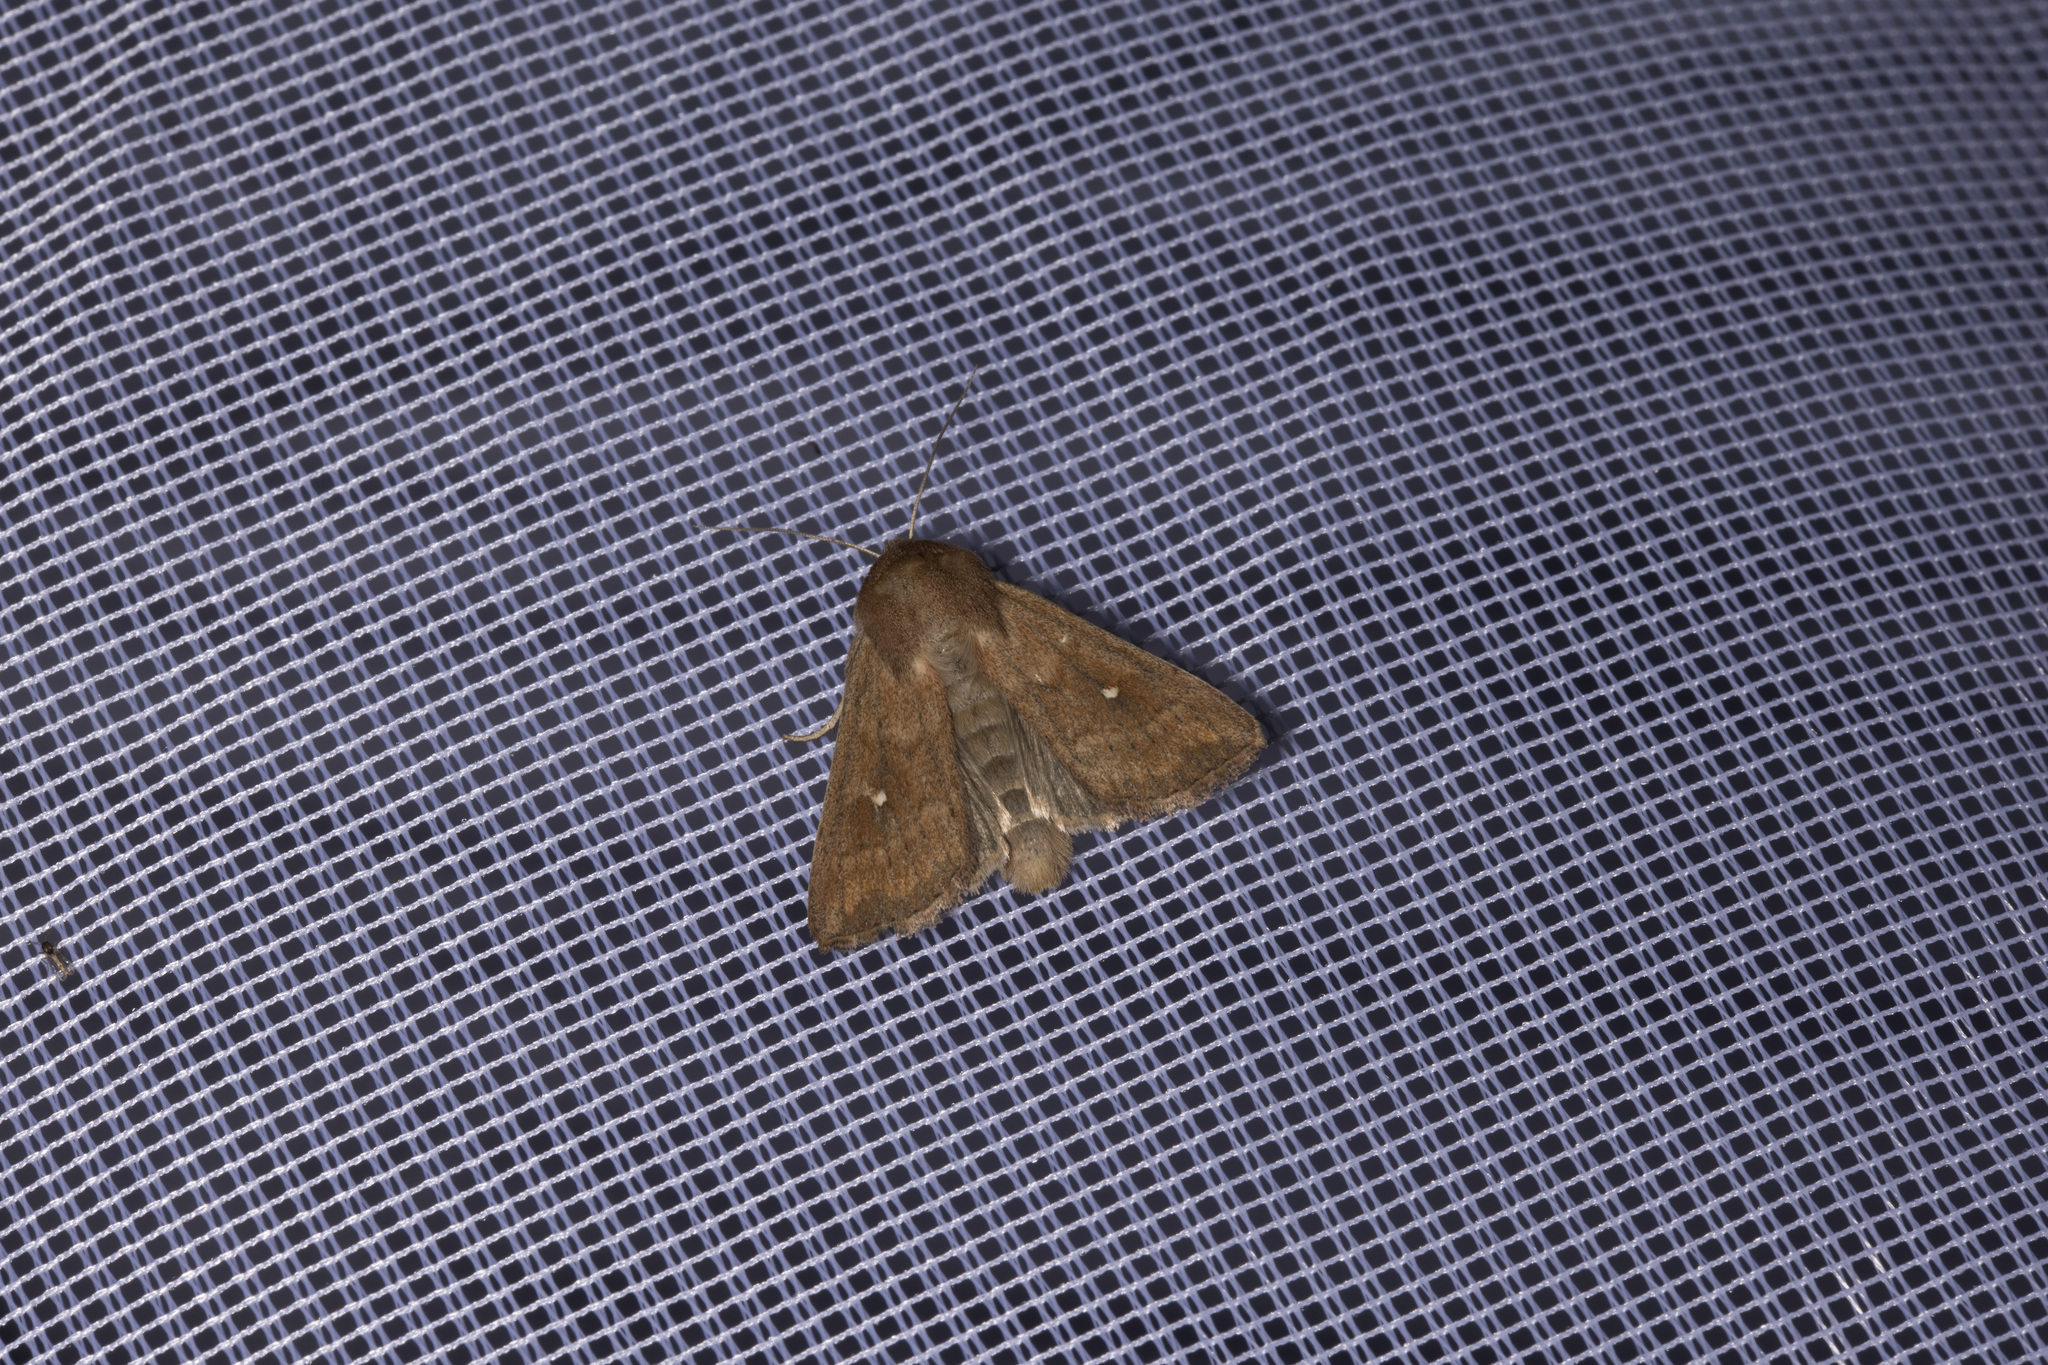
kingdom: Animalia
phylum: Arthropoda
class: Insecta
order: Lepidoptera
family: Noctuidae
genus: Mythimna
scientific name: Mythimna albipuncta
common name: White-point
